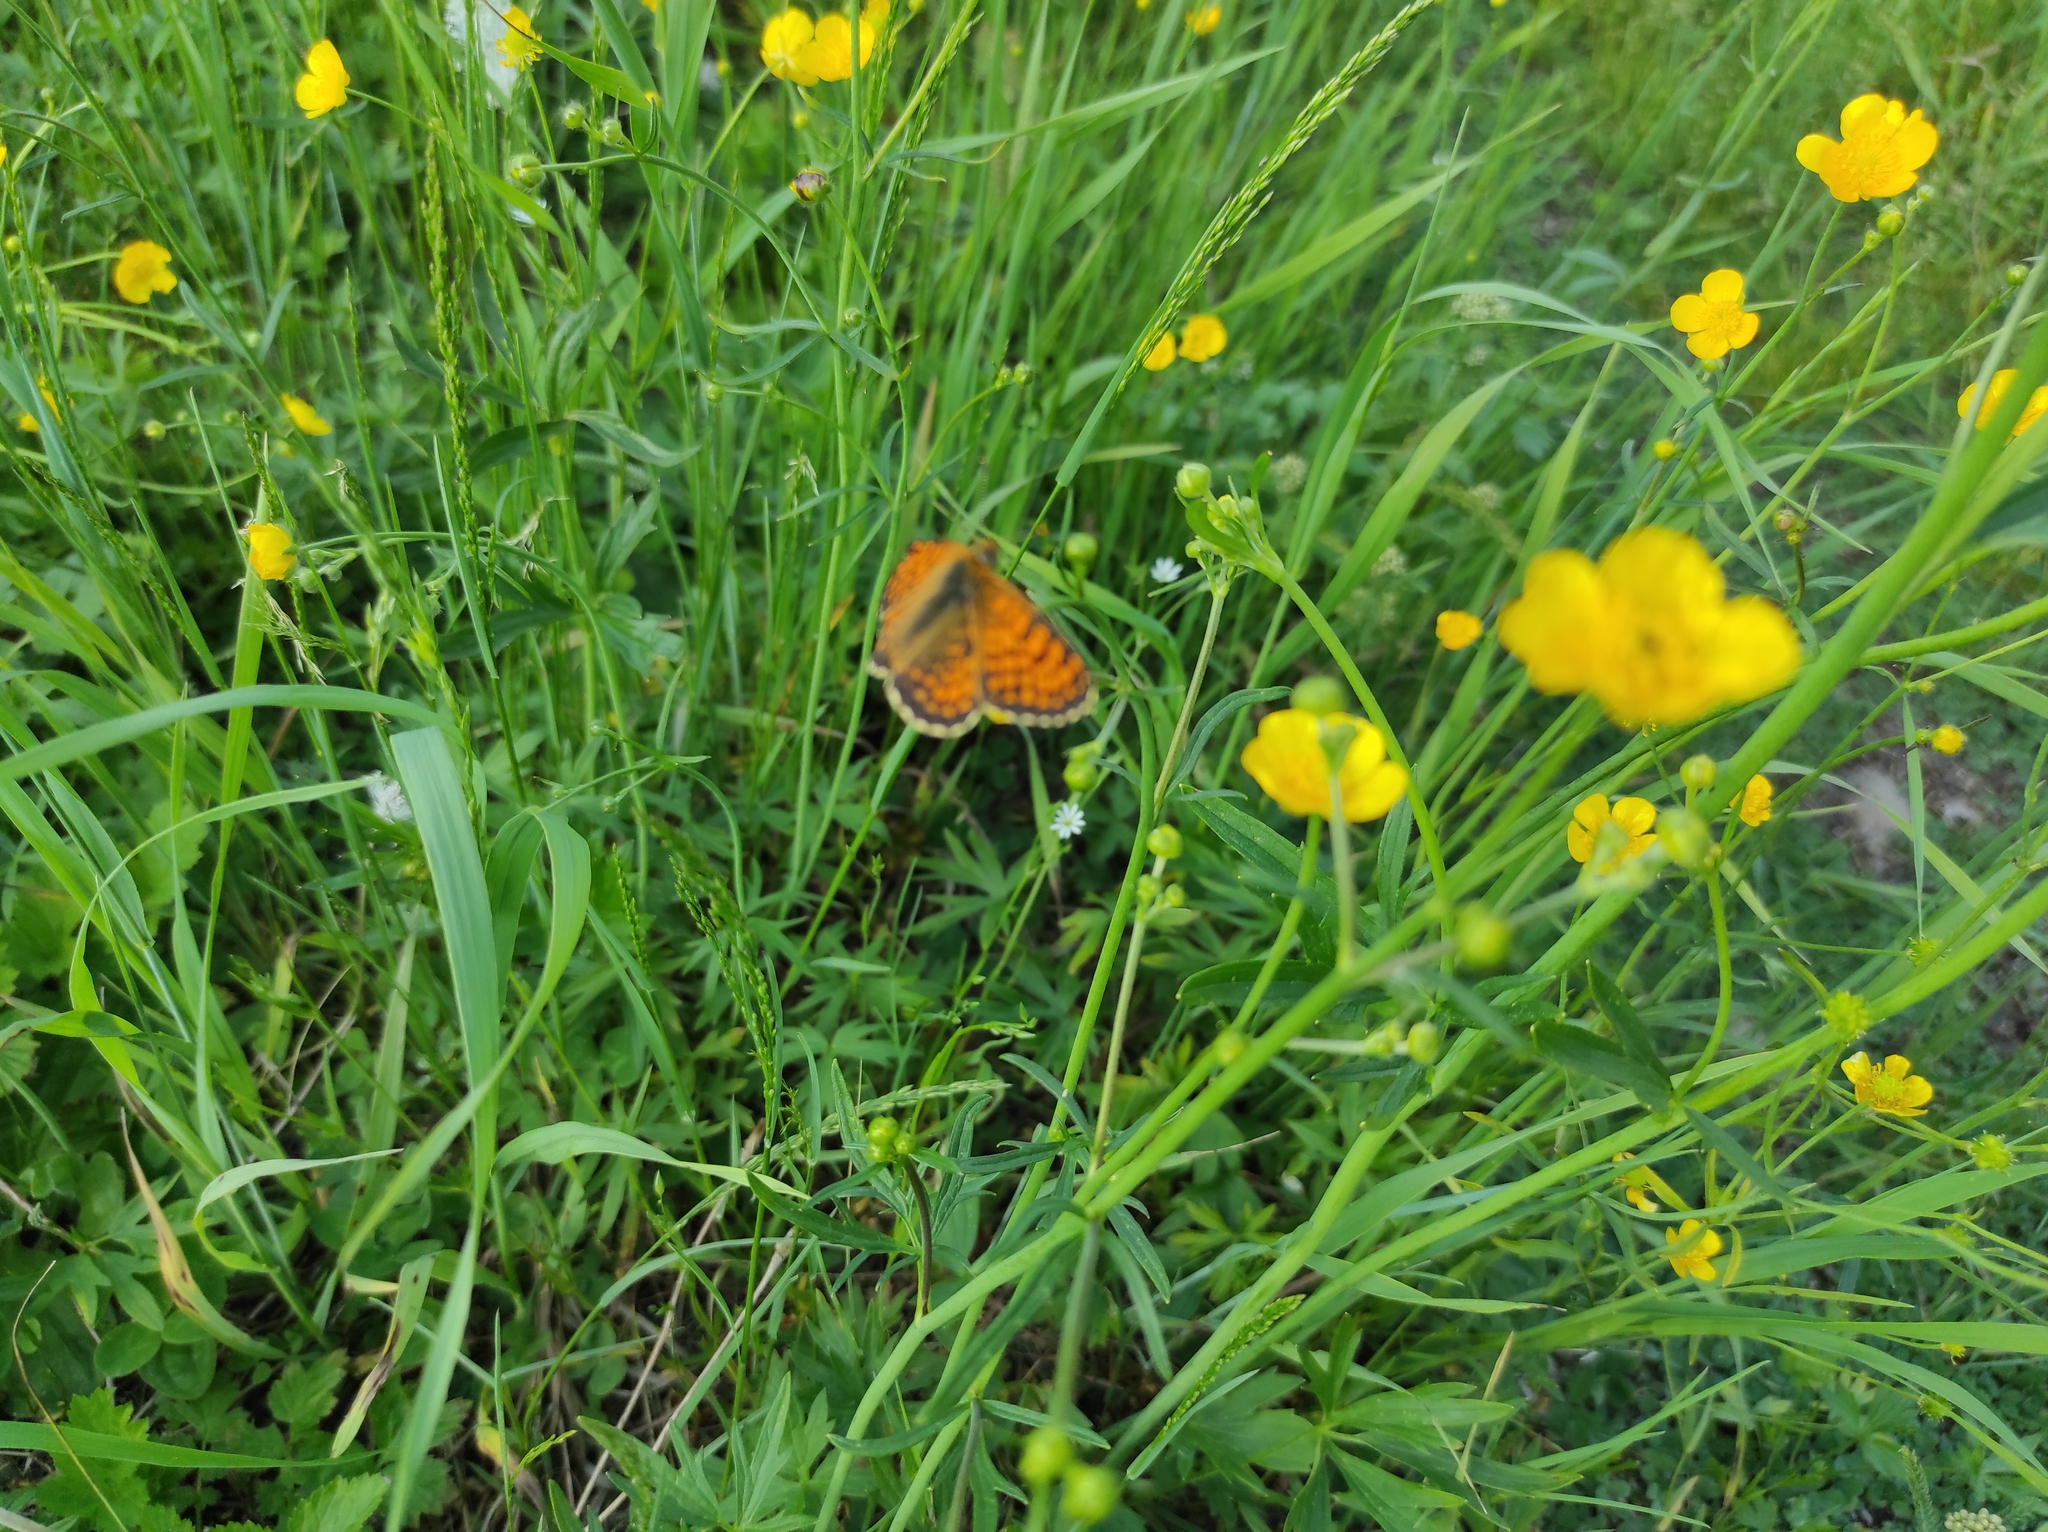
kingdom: Animalia
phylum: Arthropoda
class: Insecta
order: Lepidoptera
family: Nymphalidae
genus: Melitaea
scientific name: Melitaea arcesia
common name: Blackvein fritillary
